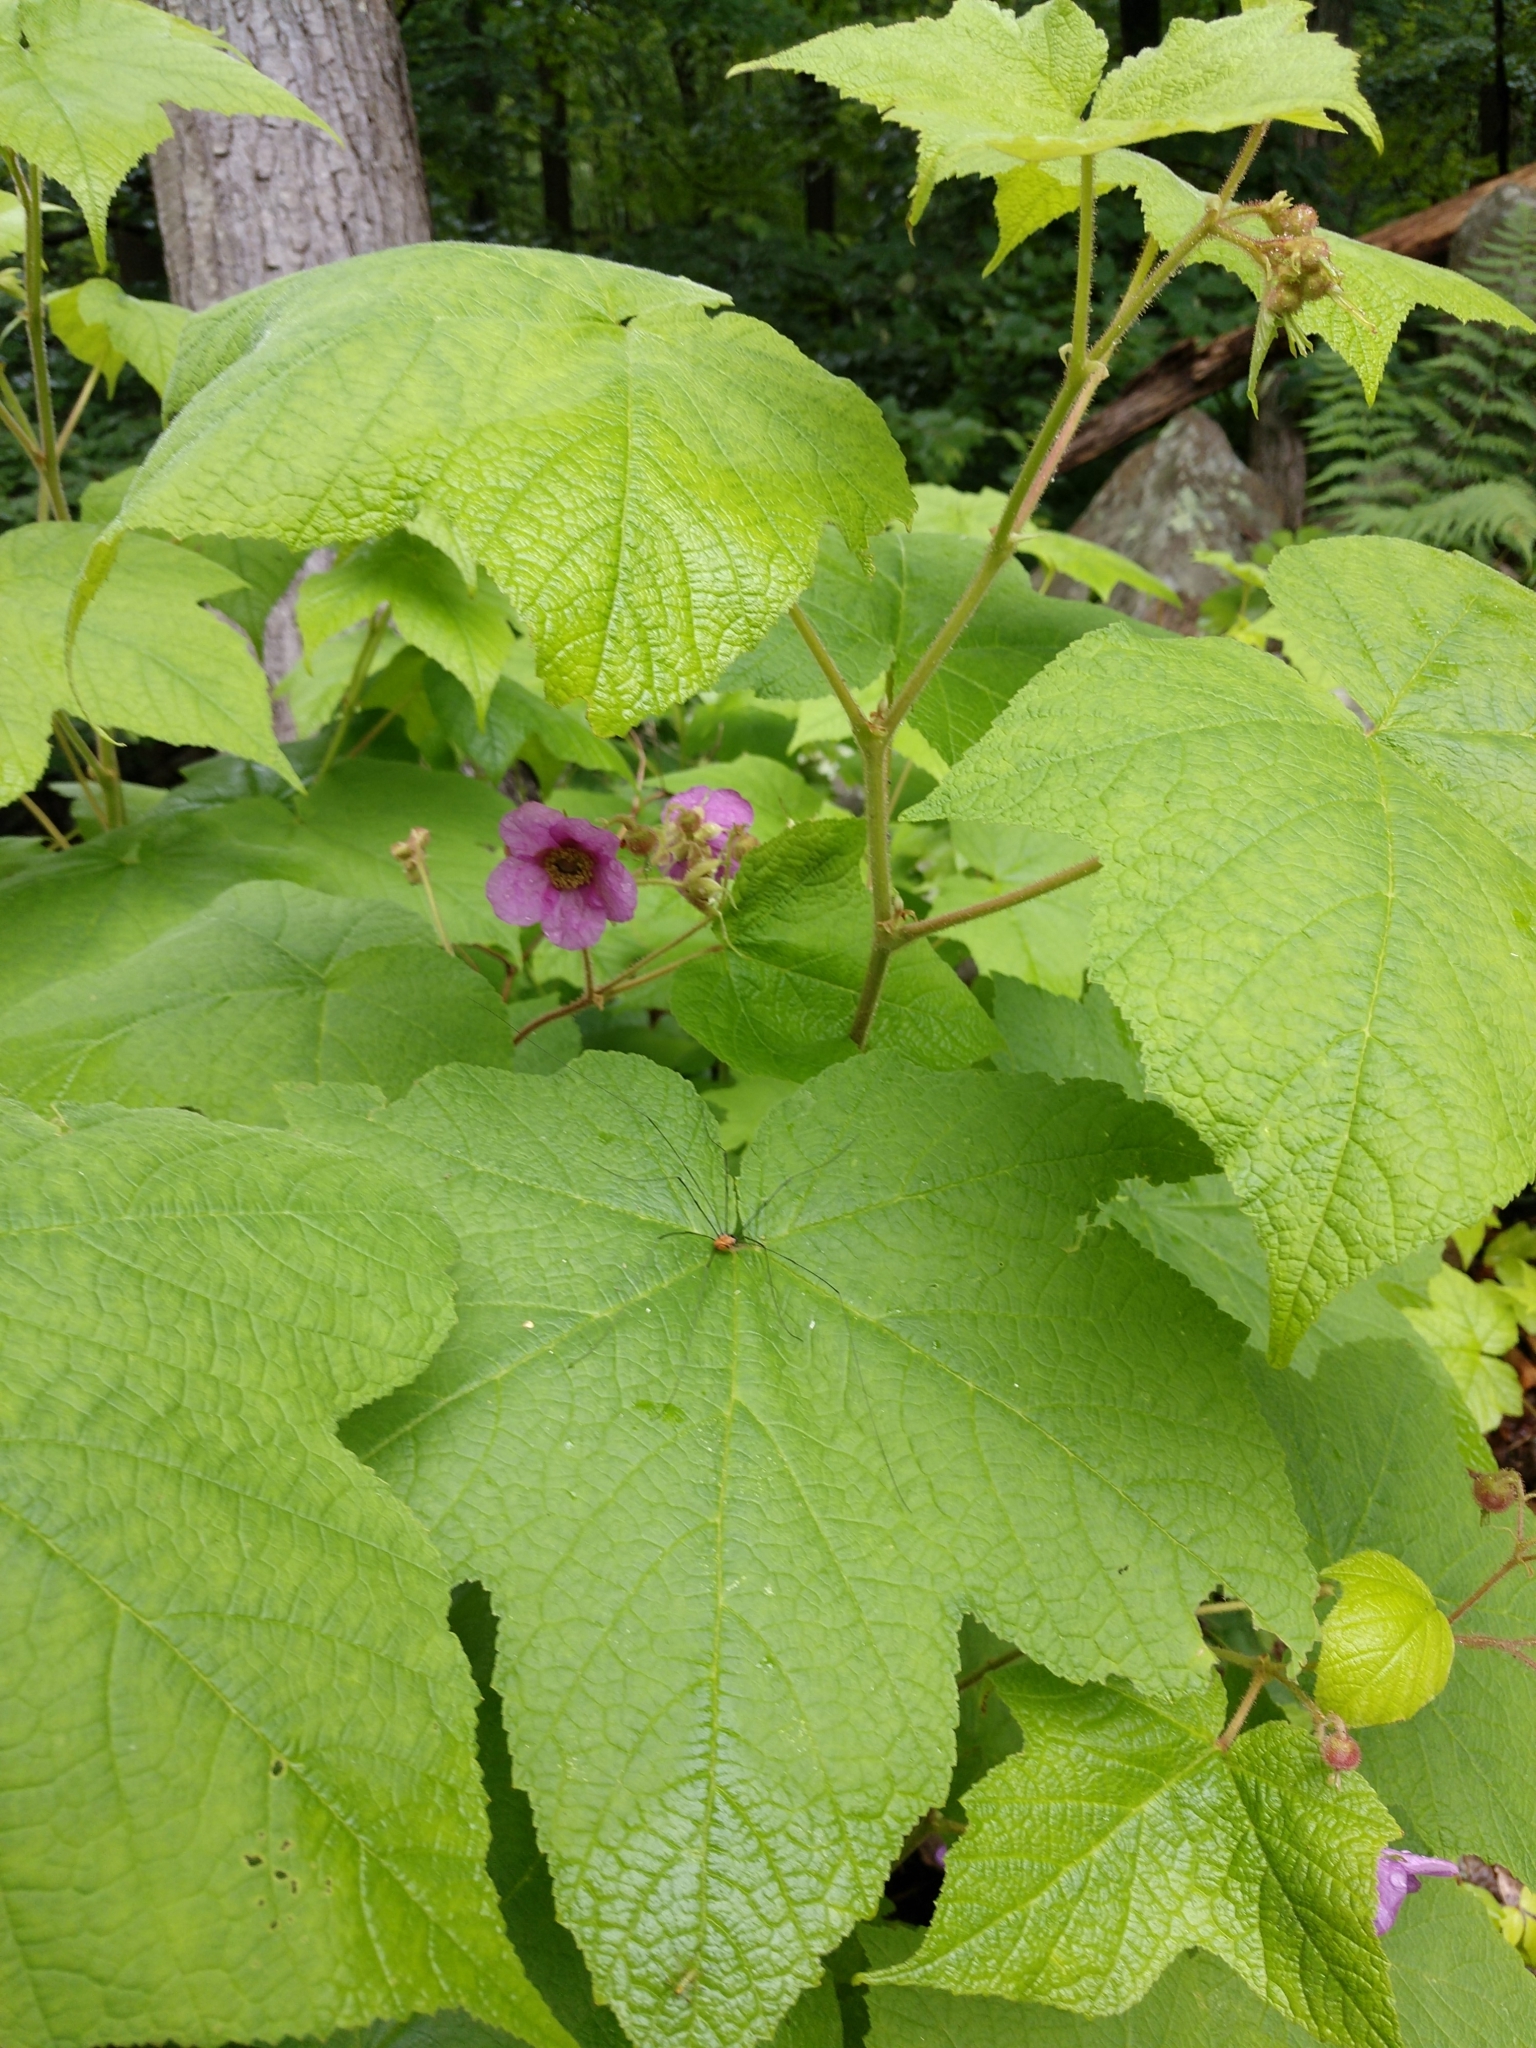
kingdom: Plantae
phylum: Tracheophyta
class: Magnoliopsida
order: Rosales
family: Rosaceae
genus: Rubus
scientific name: Rubus odoratus
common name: Purple-flowered raspberry
